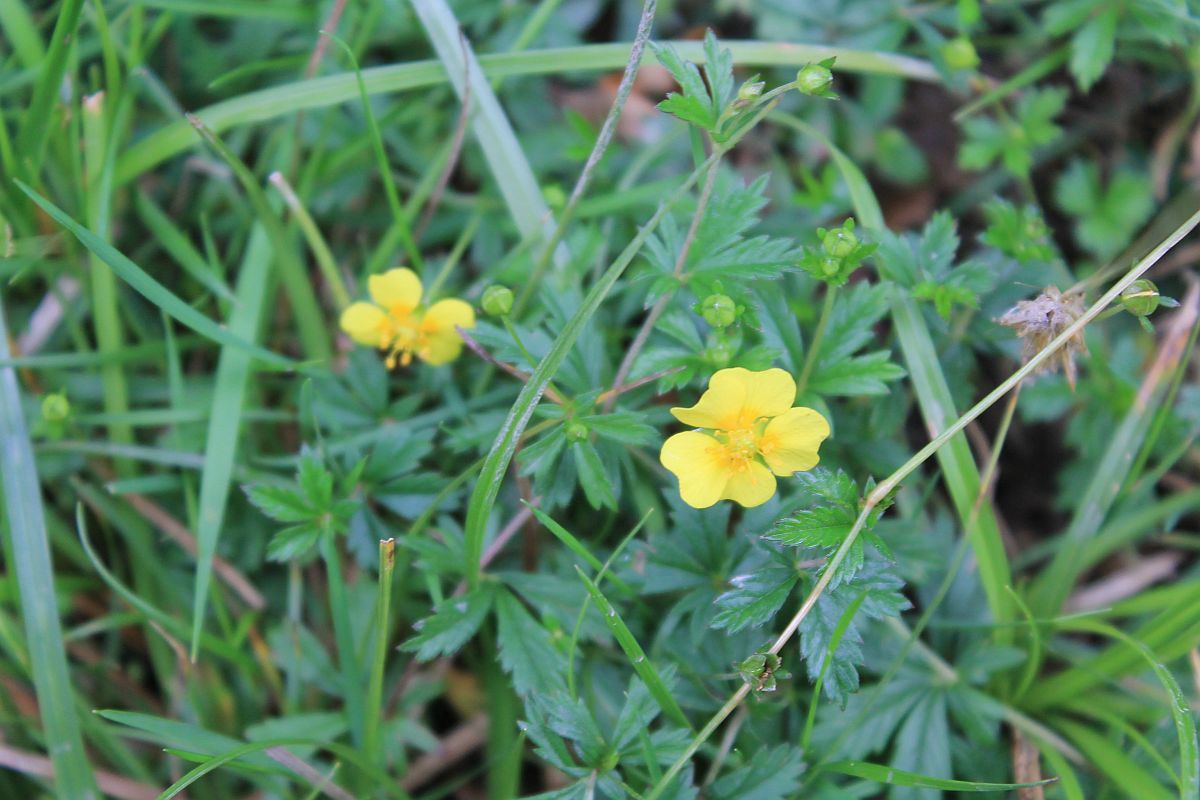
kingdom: Plantae
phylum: Tracheophyta
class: Magnoliopsida
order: Rosales
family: Rosaceae
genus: Potentilla
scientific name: Potentilla erecta
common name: Tormentil
